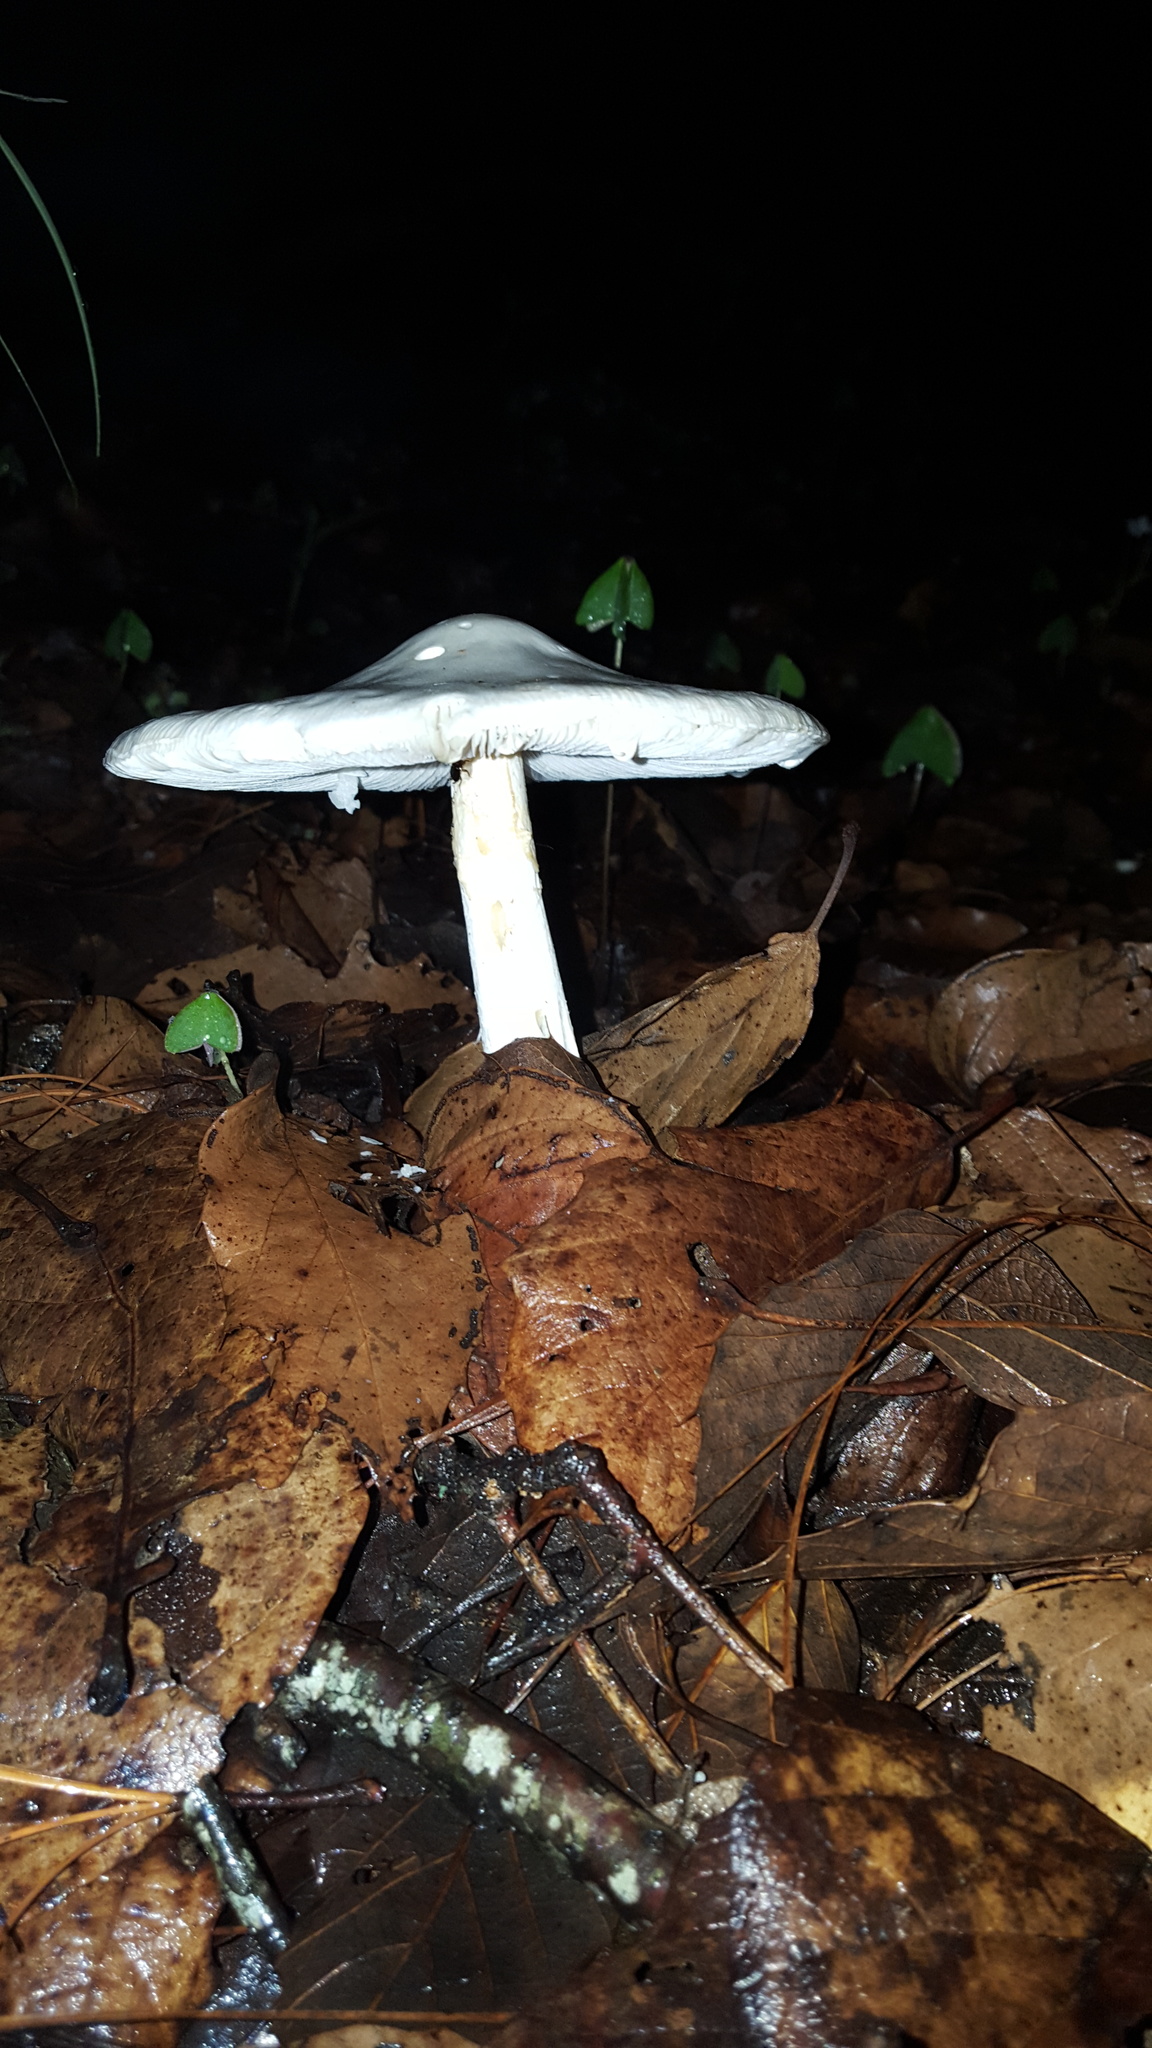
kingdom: Fungi
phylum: Basidiomycota
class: Agaricomycetes
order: Agaricales
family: Amanitaceae
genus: Amanita
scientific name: Amanita verna
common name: Fool's mushroom
